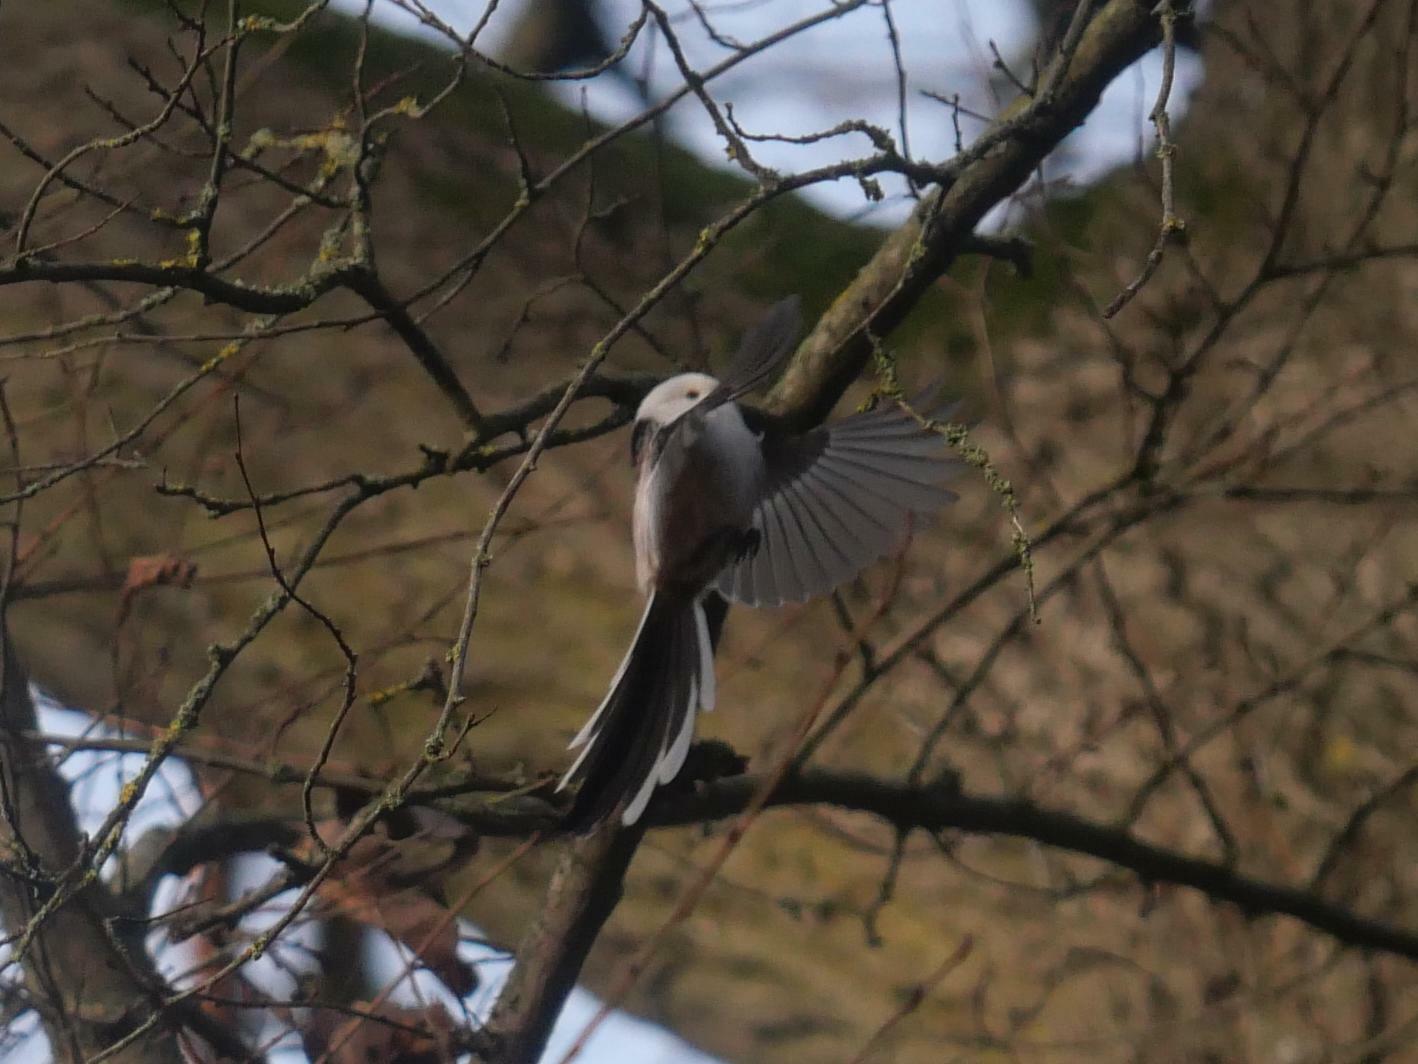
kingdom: Animalia
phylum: Chordata
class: Aves
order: Passeriformes
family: Aegithalidae
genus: Aegithalos
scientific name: Aegithalos caudatus
